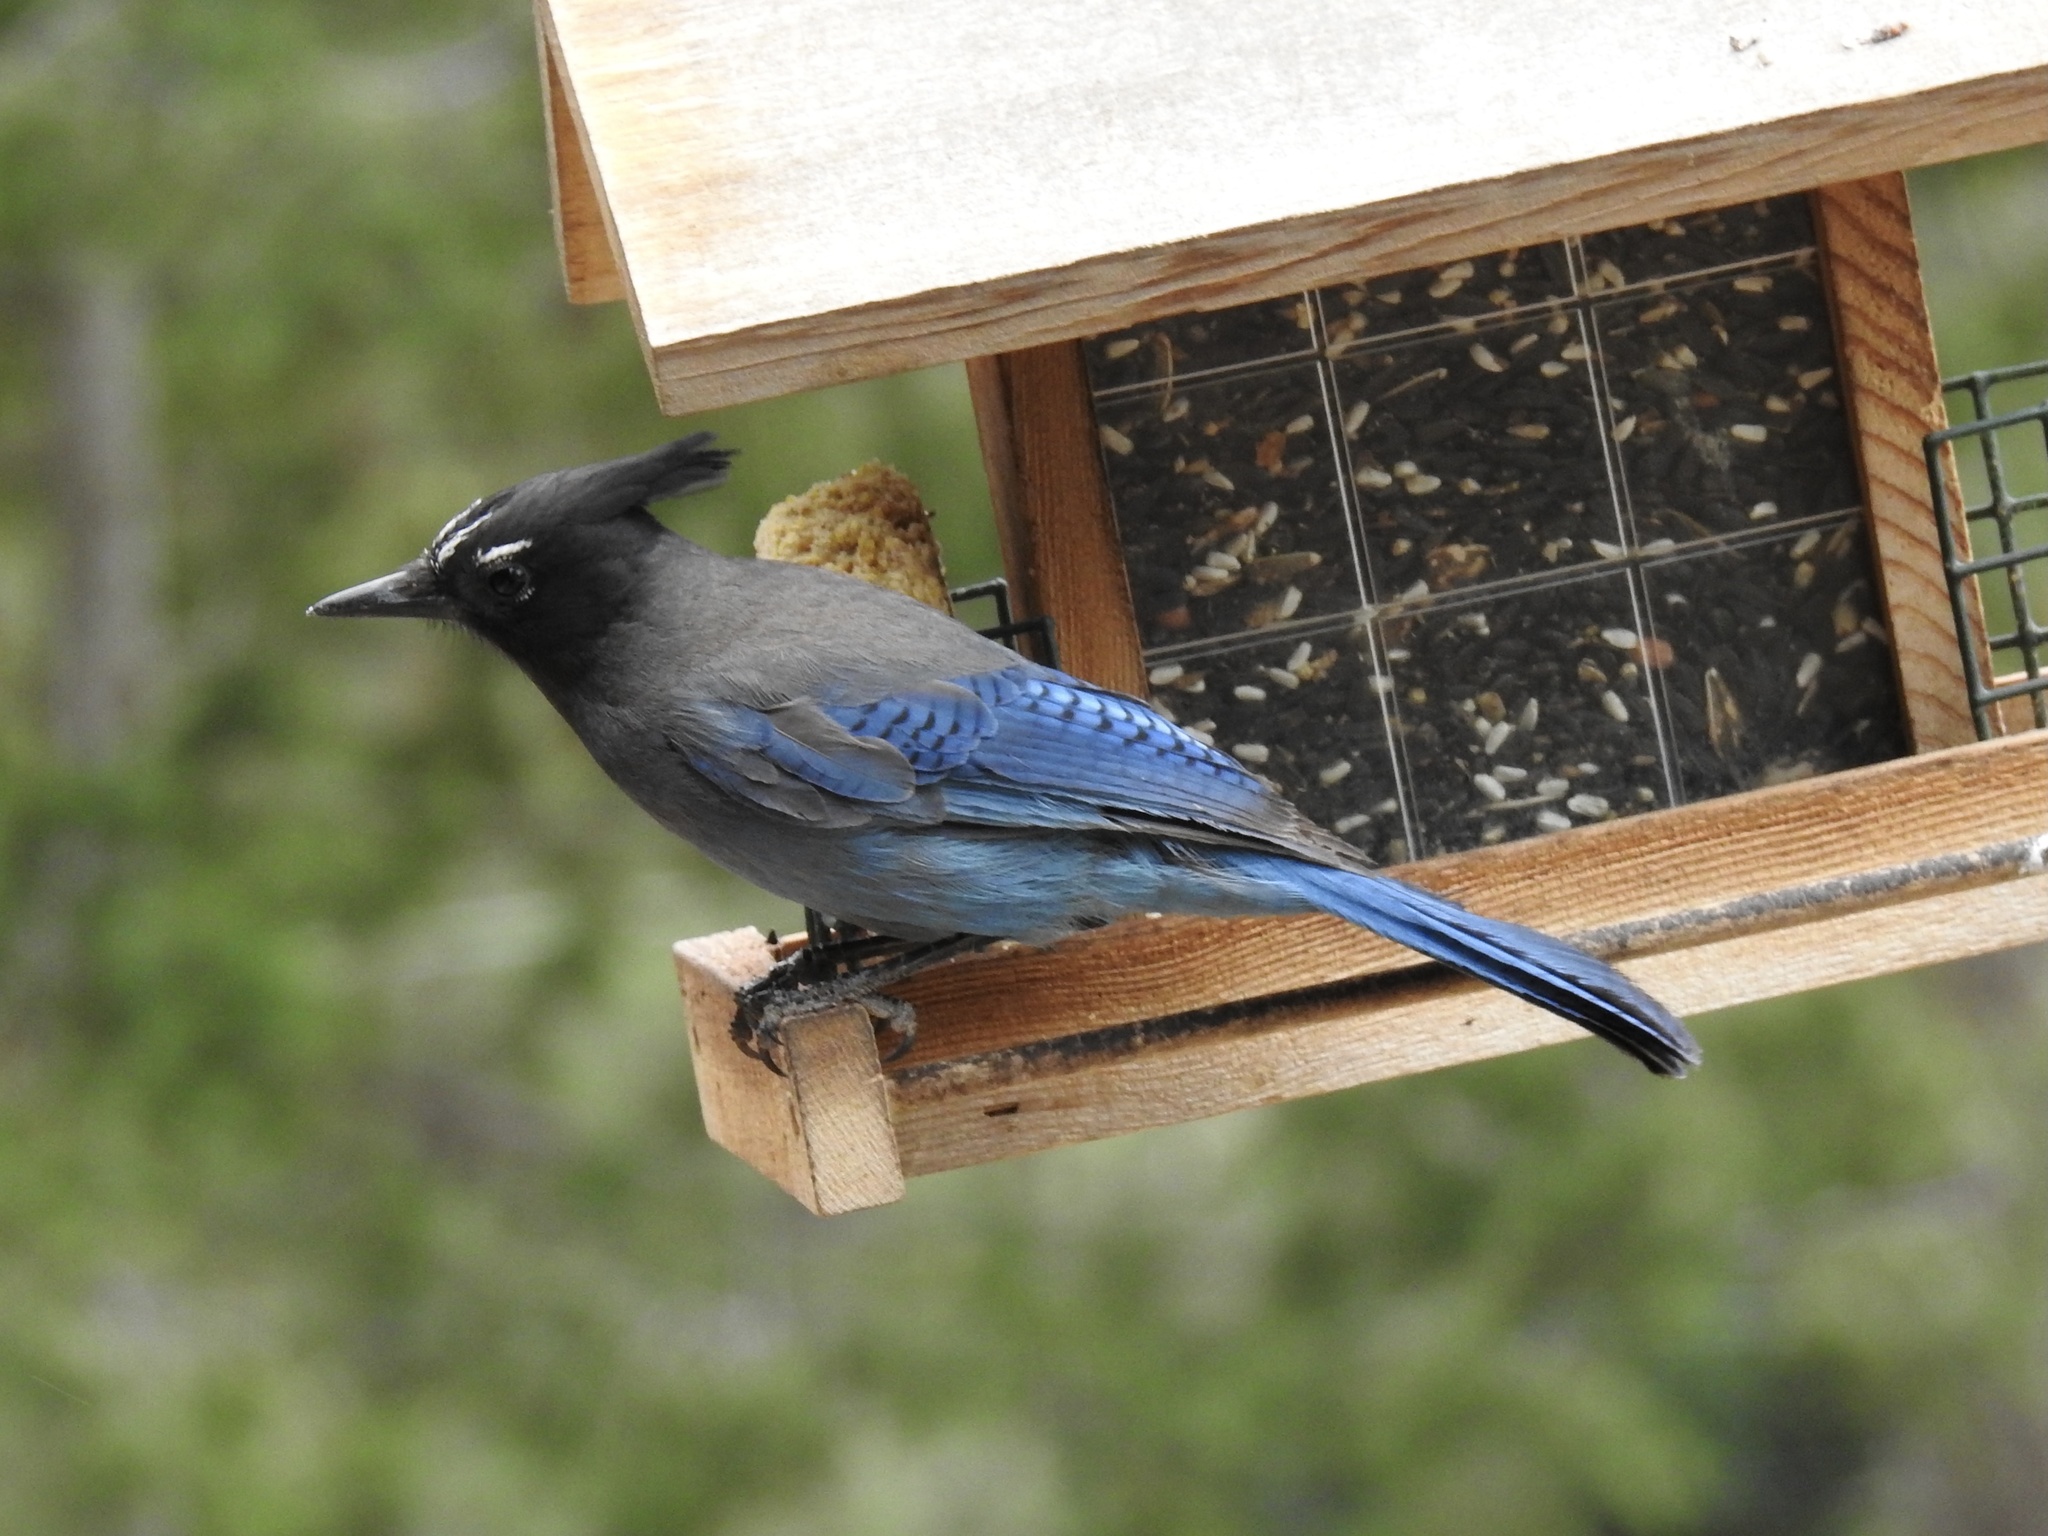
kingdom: Animalia
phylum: Chordata
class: Aves
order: Passeriformes
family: Corvidae
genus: Cyanocitta
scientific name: Cyanocitta stelleri
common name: Steller's jay
